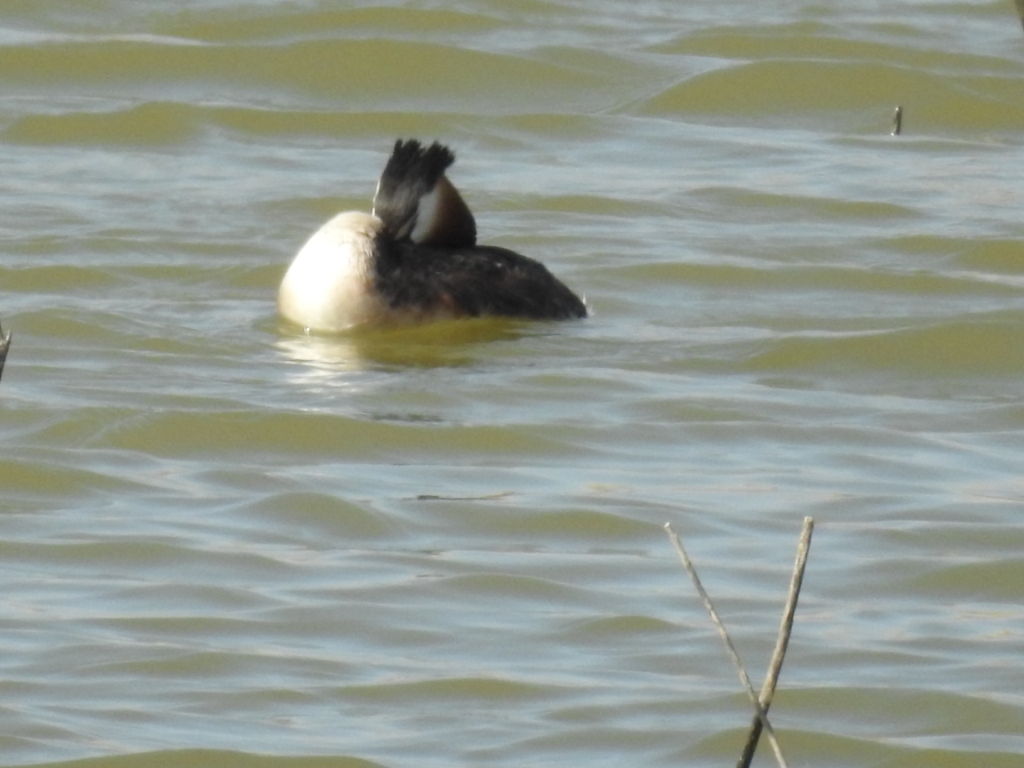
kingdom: Animalia
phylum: Chordata
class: Aves
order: Podicipediformes
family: Podicipedidae
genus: Podiceps
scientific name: Podiceps cristatus
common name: Great crested grebe
